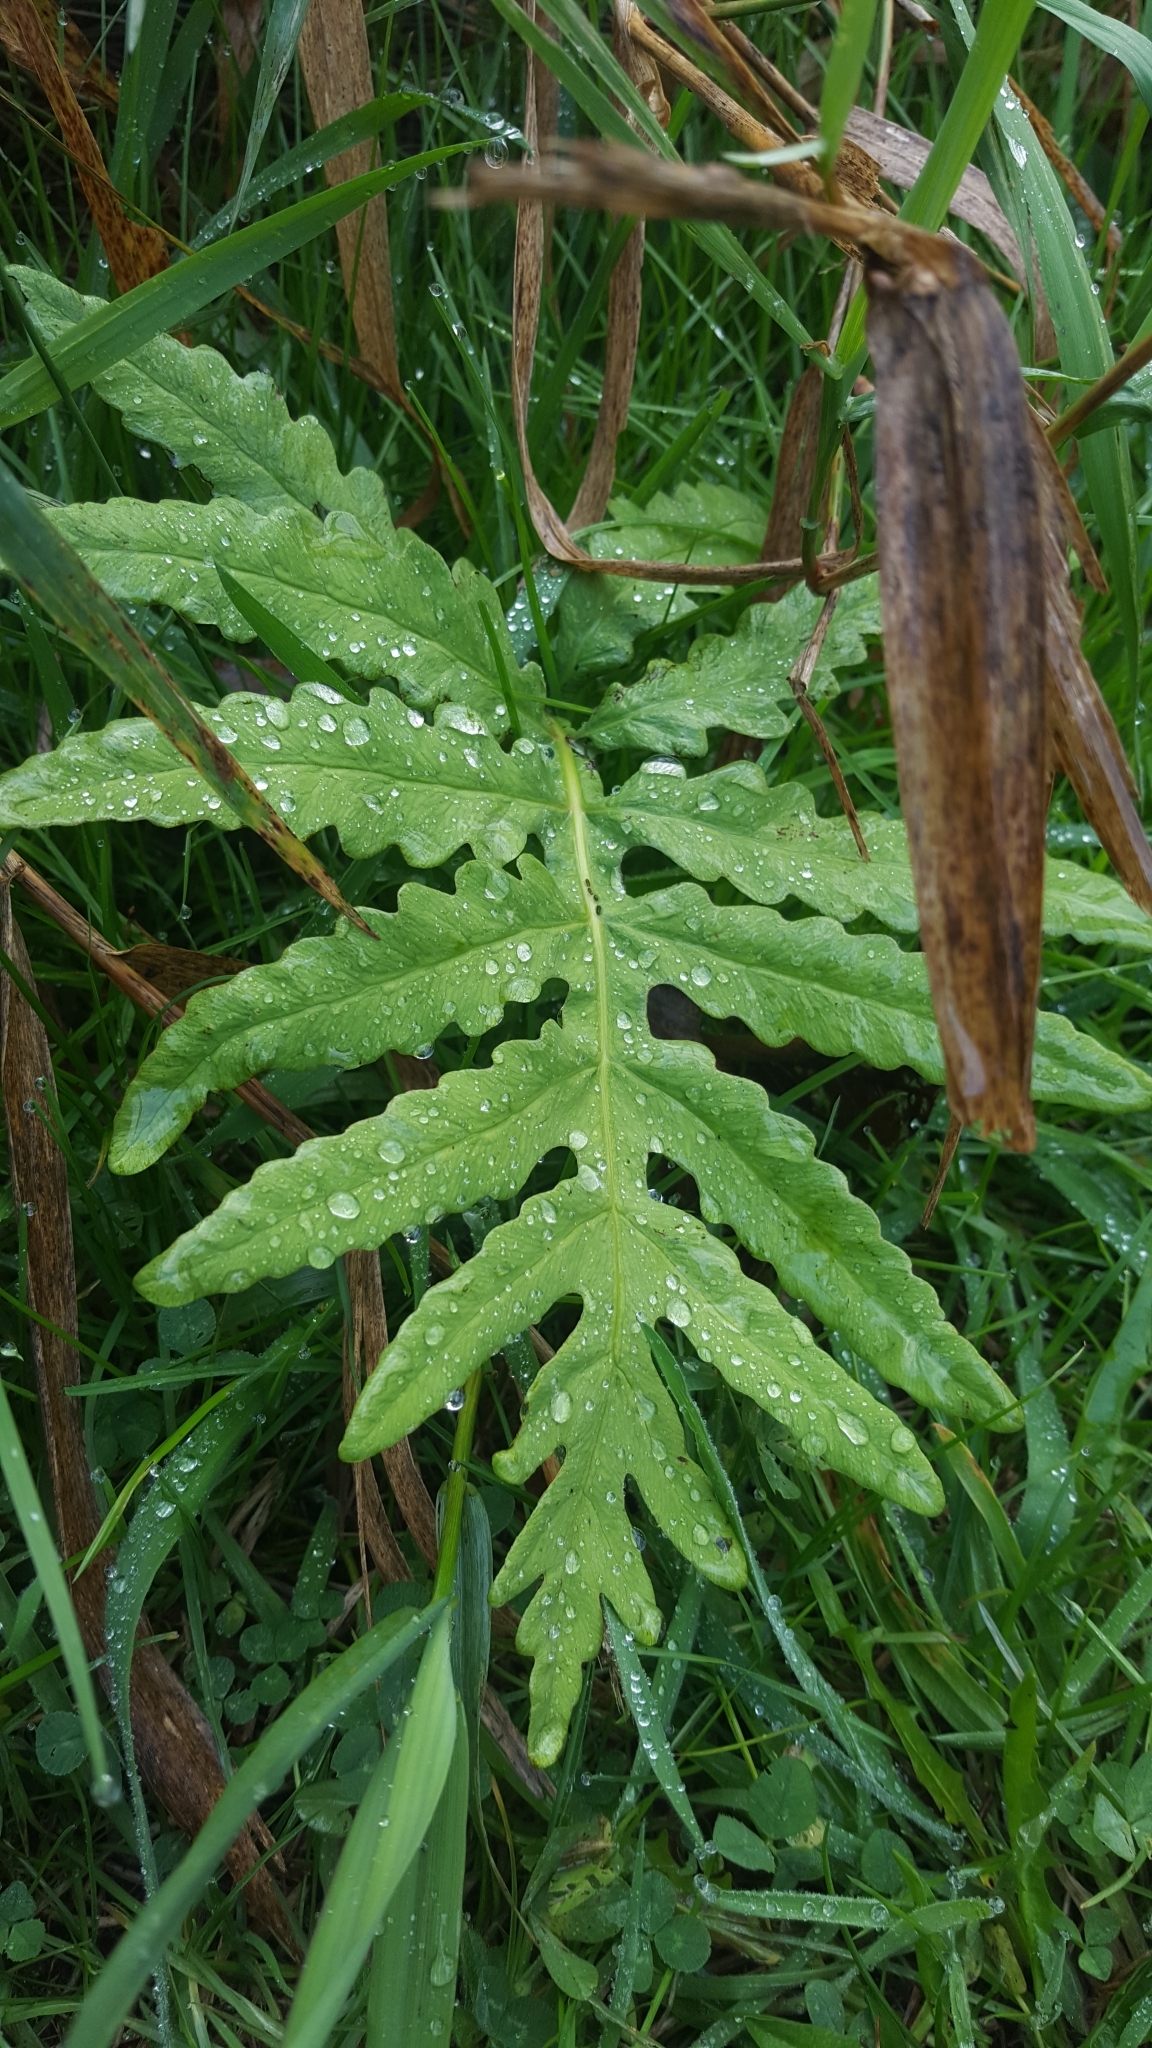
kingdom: Plantae
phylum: Tracheophyta
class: Polypodiopsida
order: Polypodiales
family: Onocleaceae
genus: Onoclea
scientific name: Onoclea sensibilis
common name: Sensitive fern
